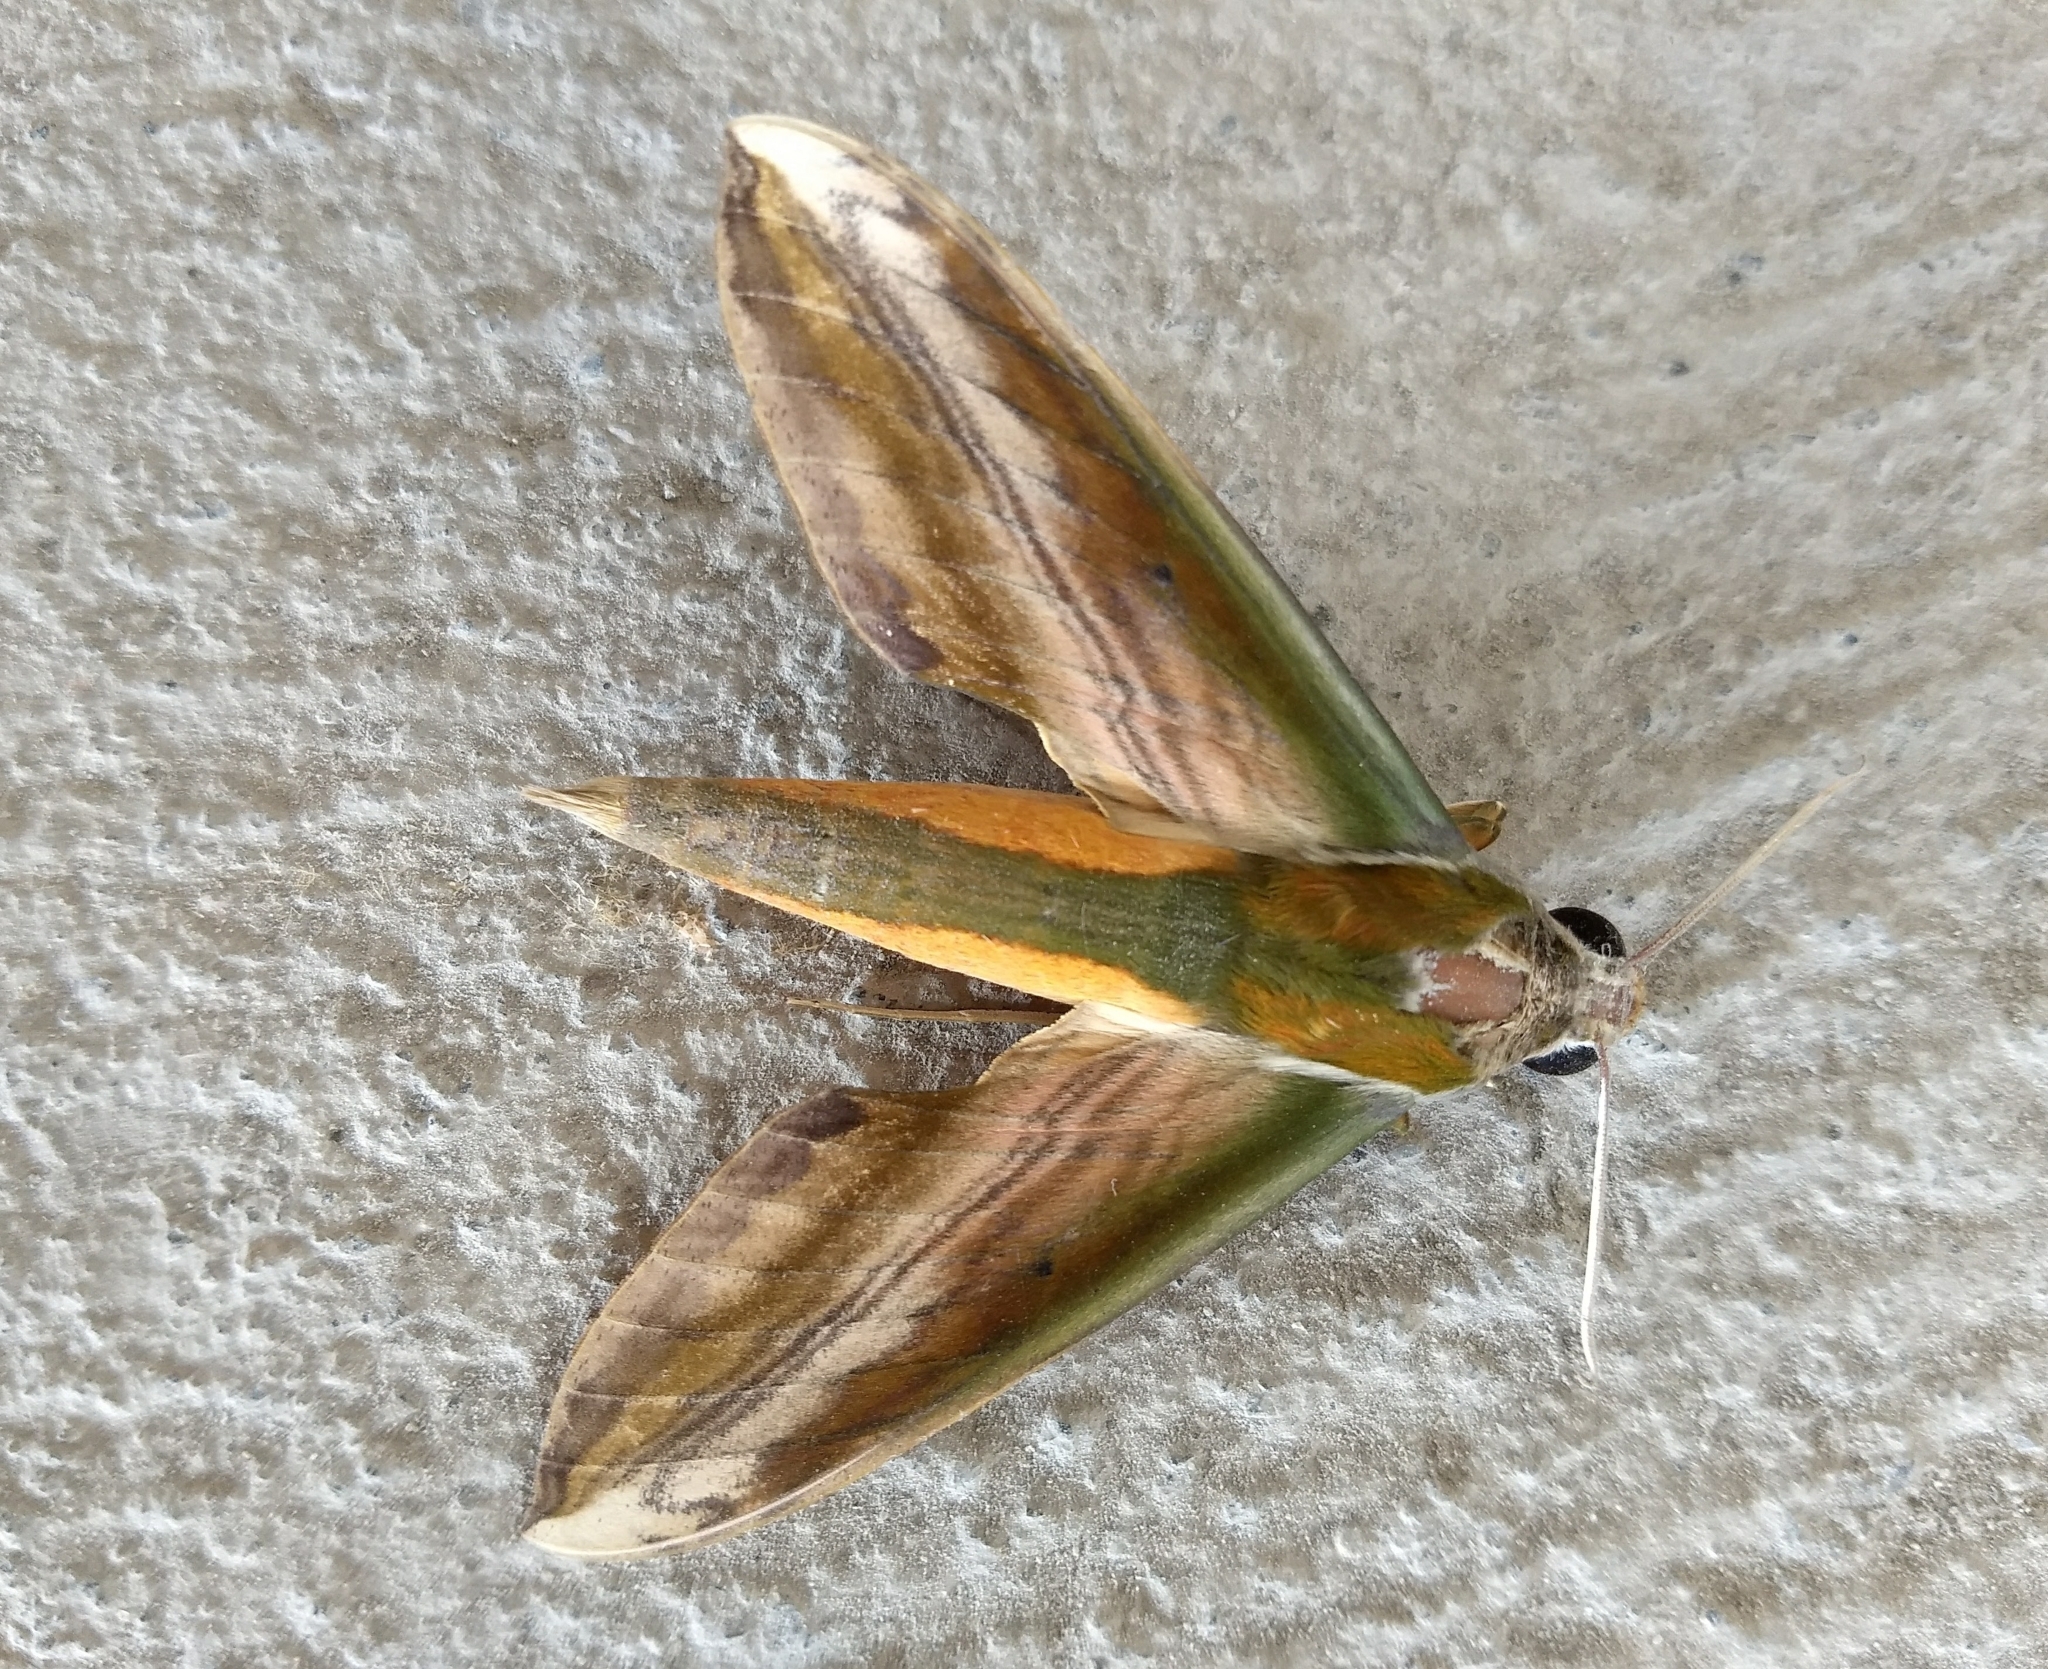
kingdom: Animalia
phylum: Arthropoda
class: Insecta
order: Lepidoptera
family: Sphingidae
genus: Theretra
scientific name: Theretra nessus
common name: Yam hawk moth
